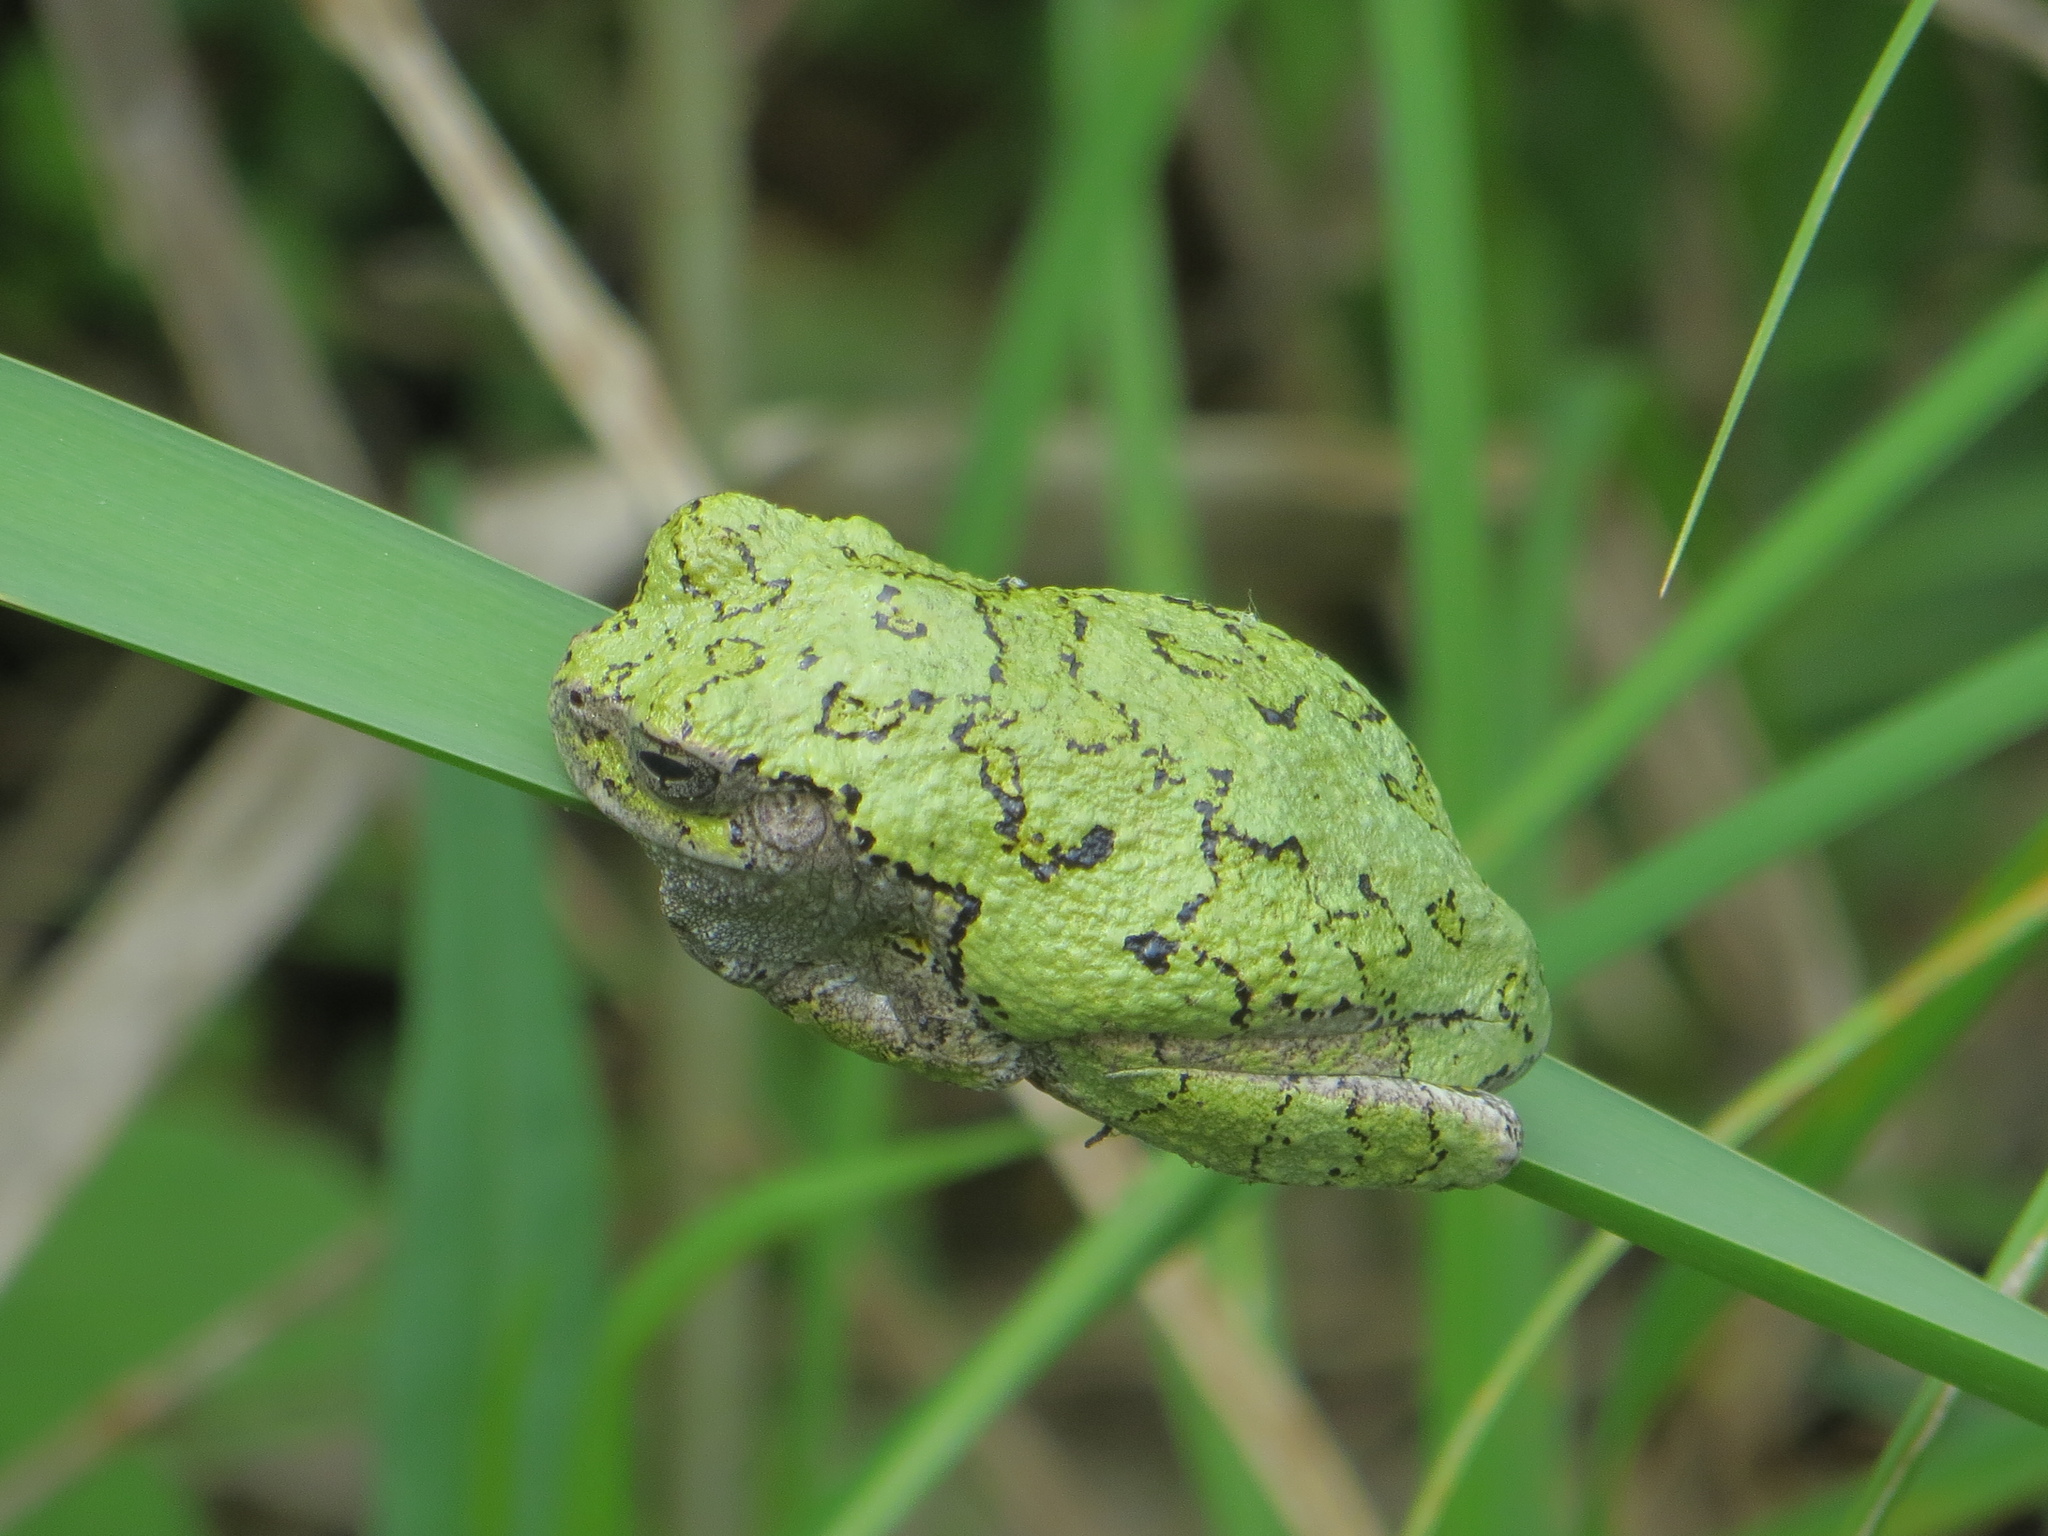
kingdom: Animalia
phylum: Chordata
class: Amphibia
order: Anura
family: Hylidae
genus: Dryophytes
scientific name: Dryophytes versicolor
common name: Gray treefrog
